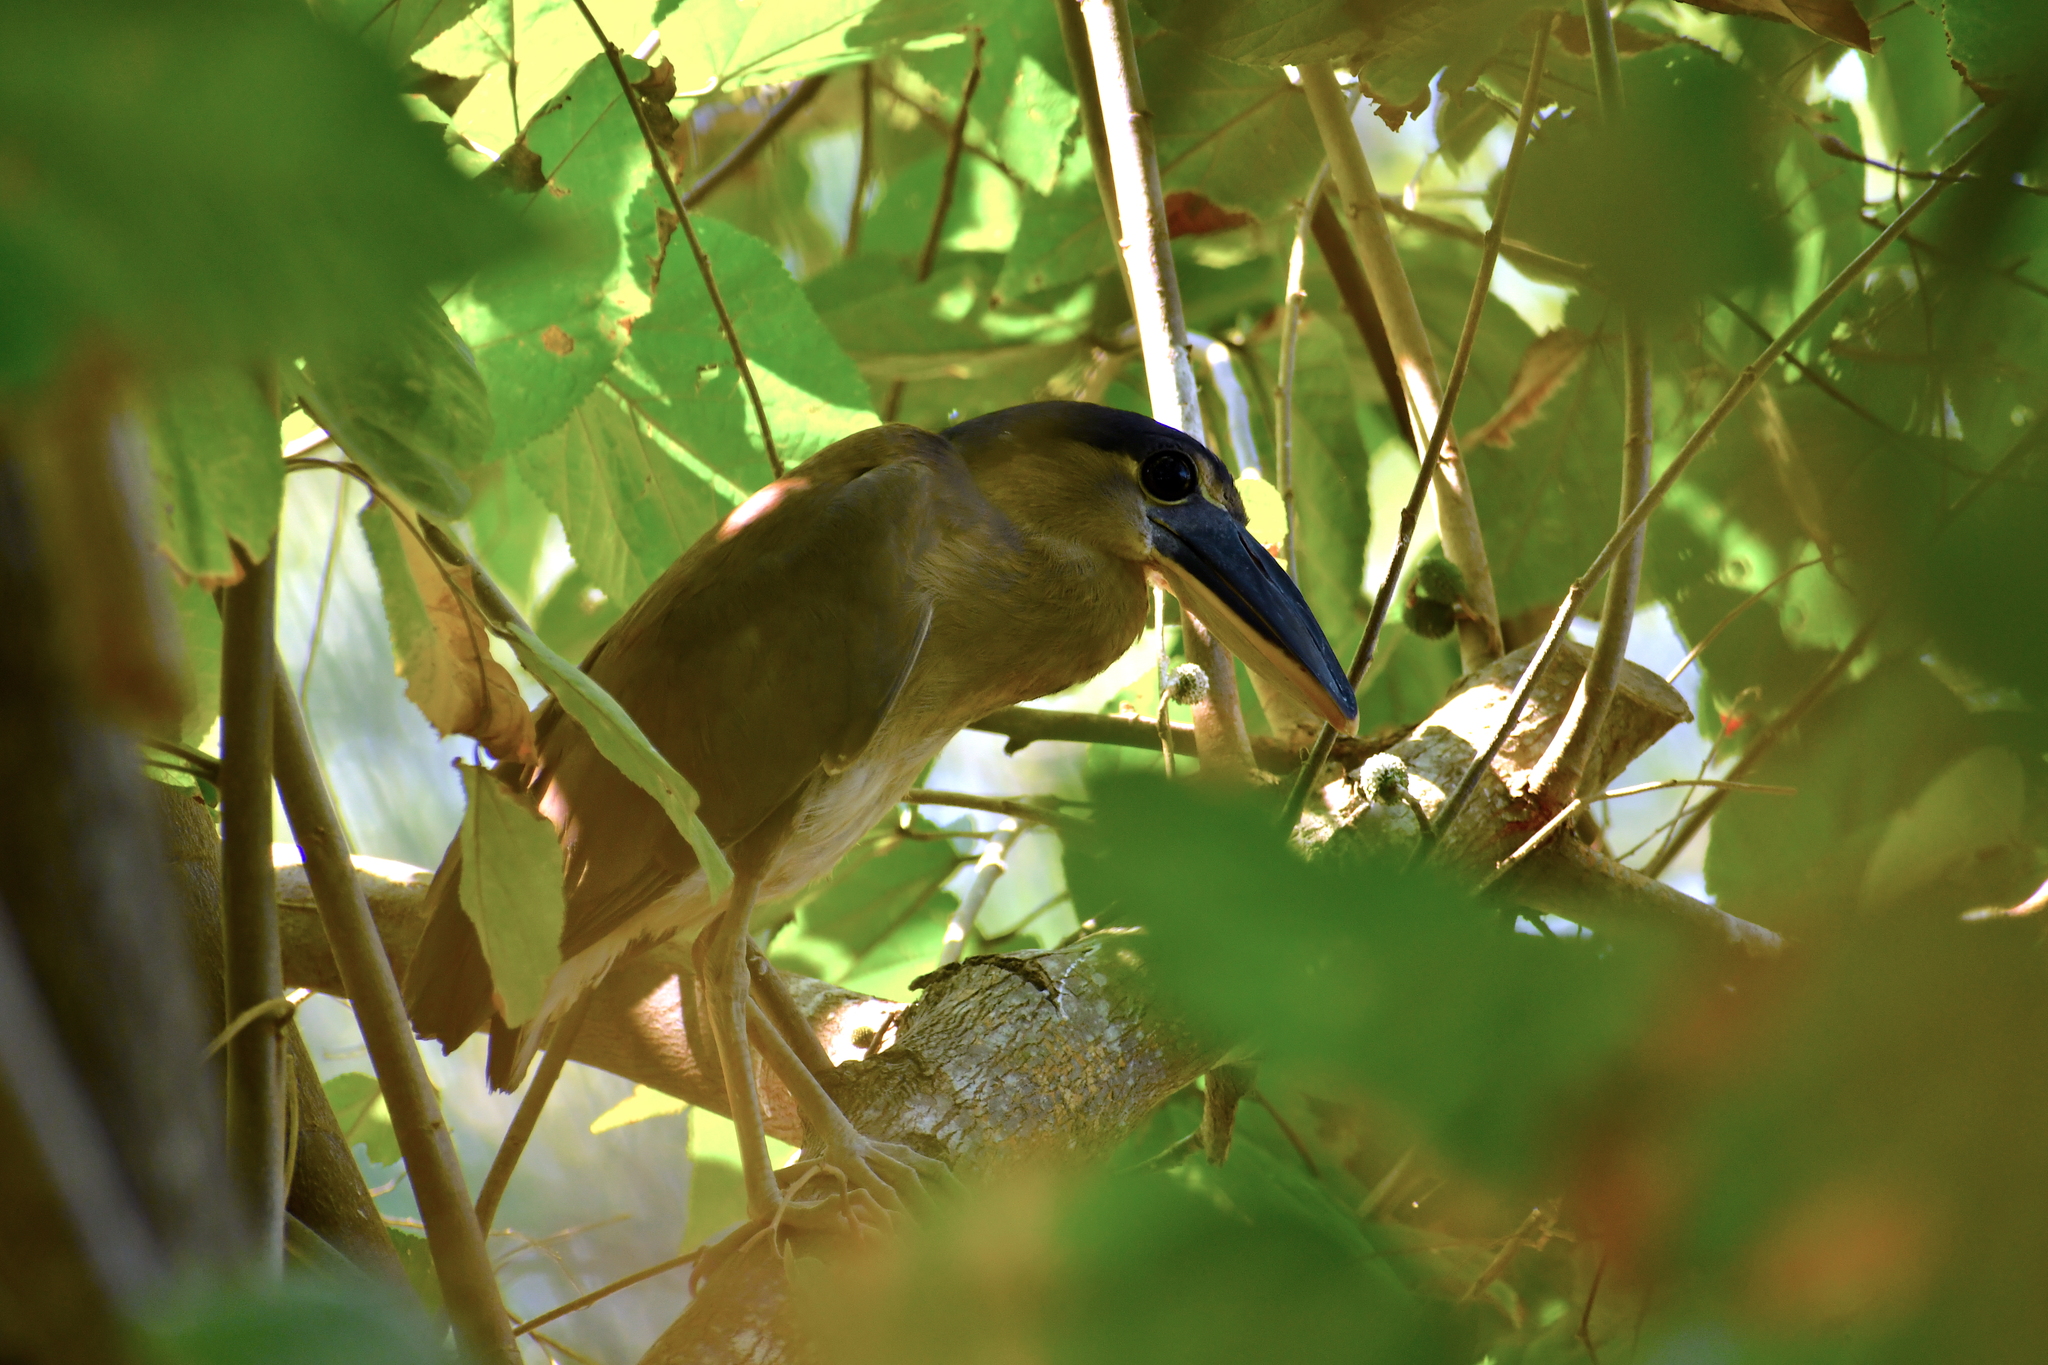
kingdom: Animalia
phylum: Chordata
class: Aves
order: Pelecaniformes
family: Ardeidae
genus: Cochlearius
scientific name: Cochlearius cochlearius
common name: Boat-billed heron
